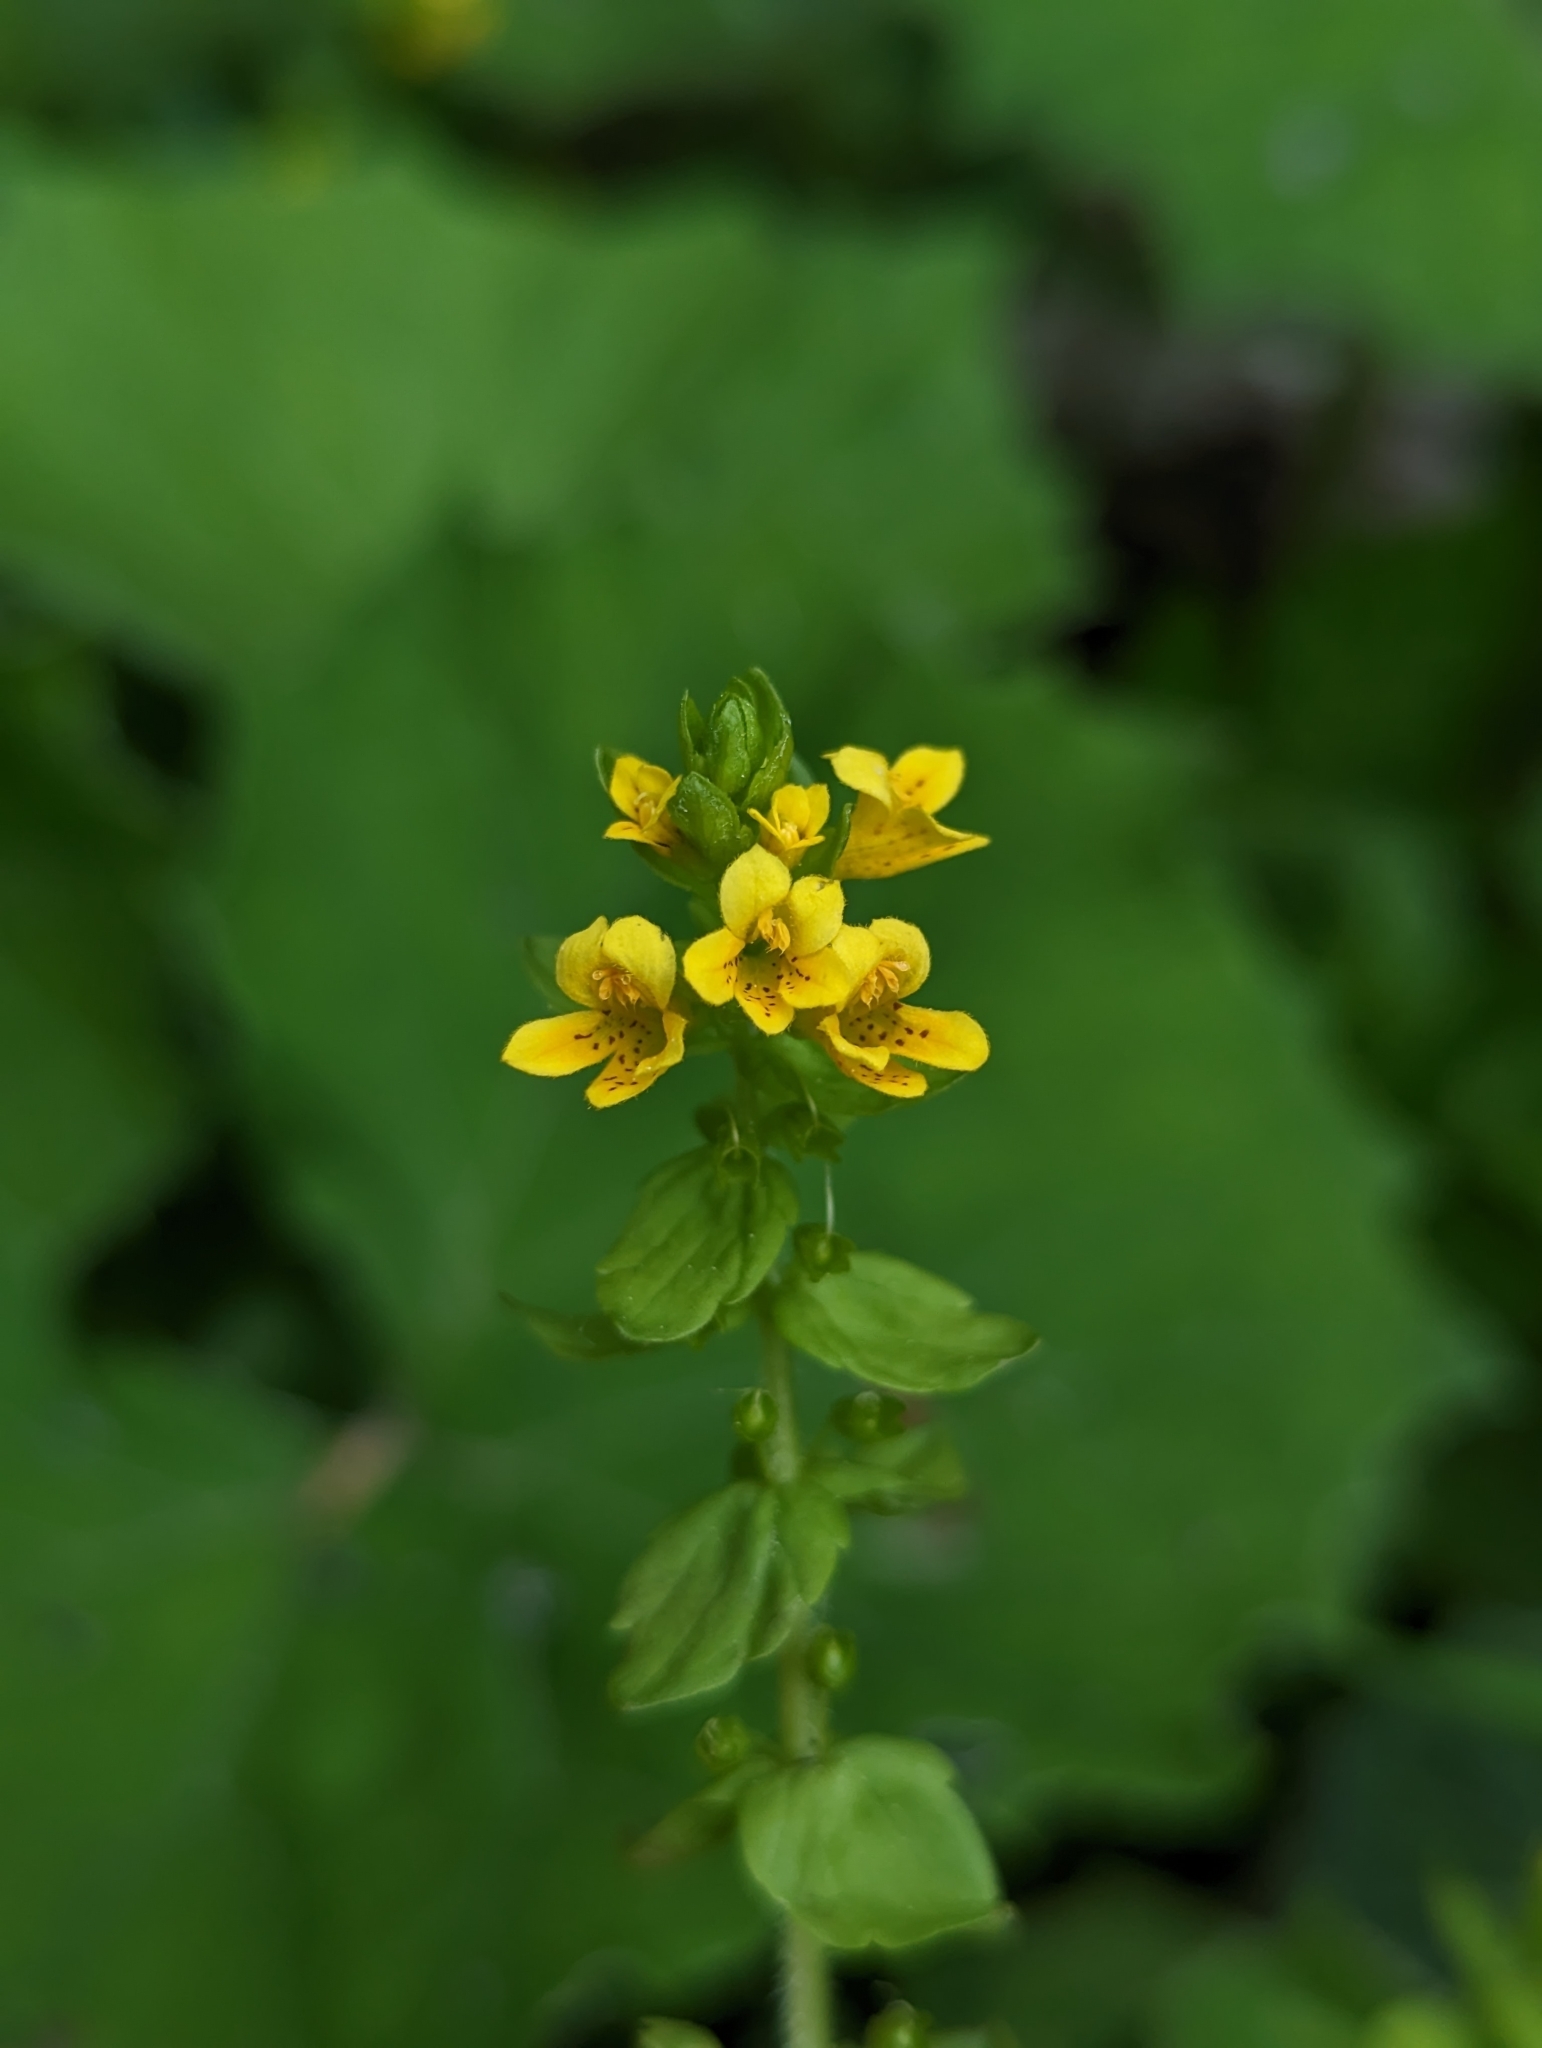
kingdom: Plantae
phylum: Tracheophyta
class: Magnoliopsida
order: Lamiales
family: Orobanchaceae
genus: Tozzia
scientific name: Tozzia alpina
